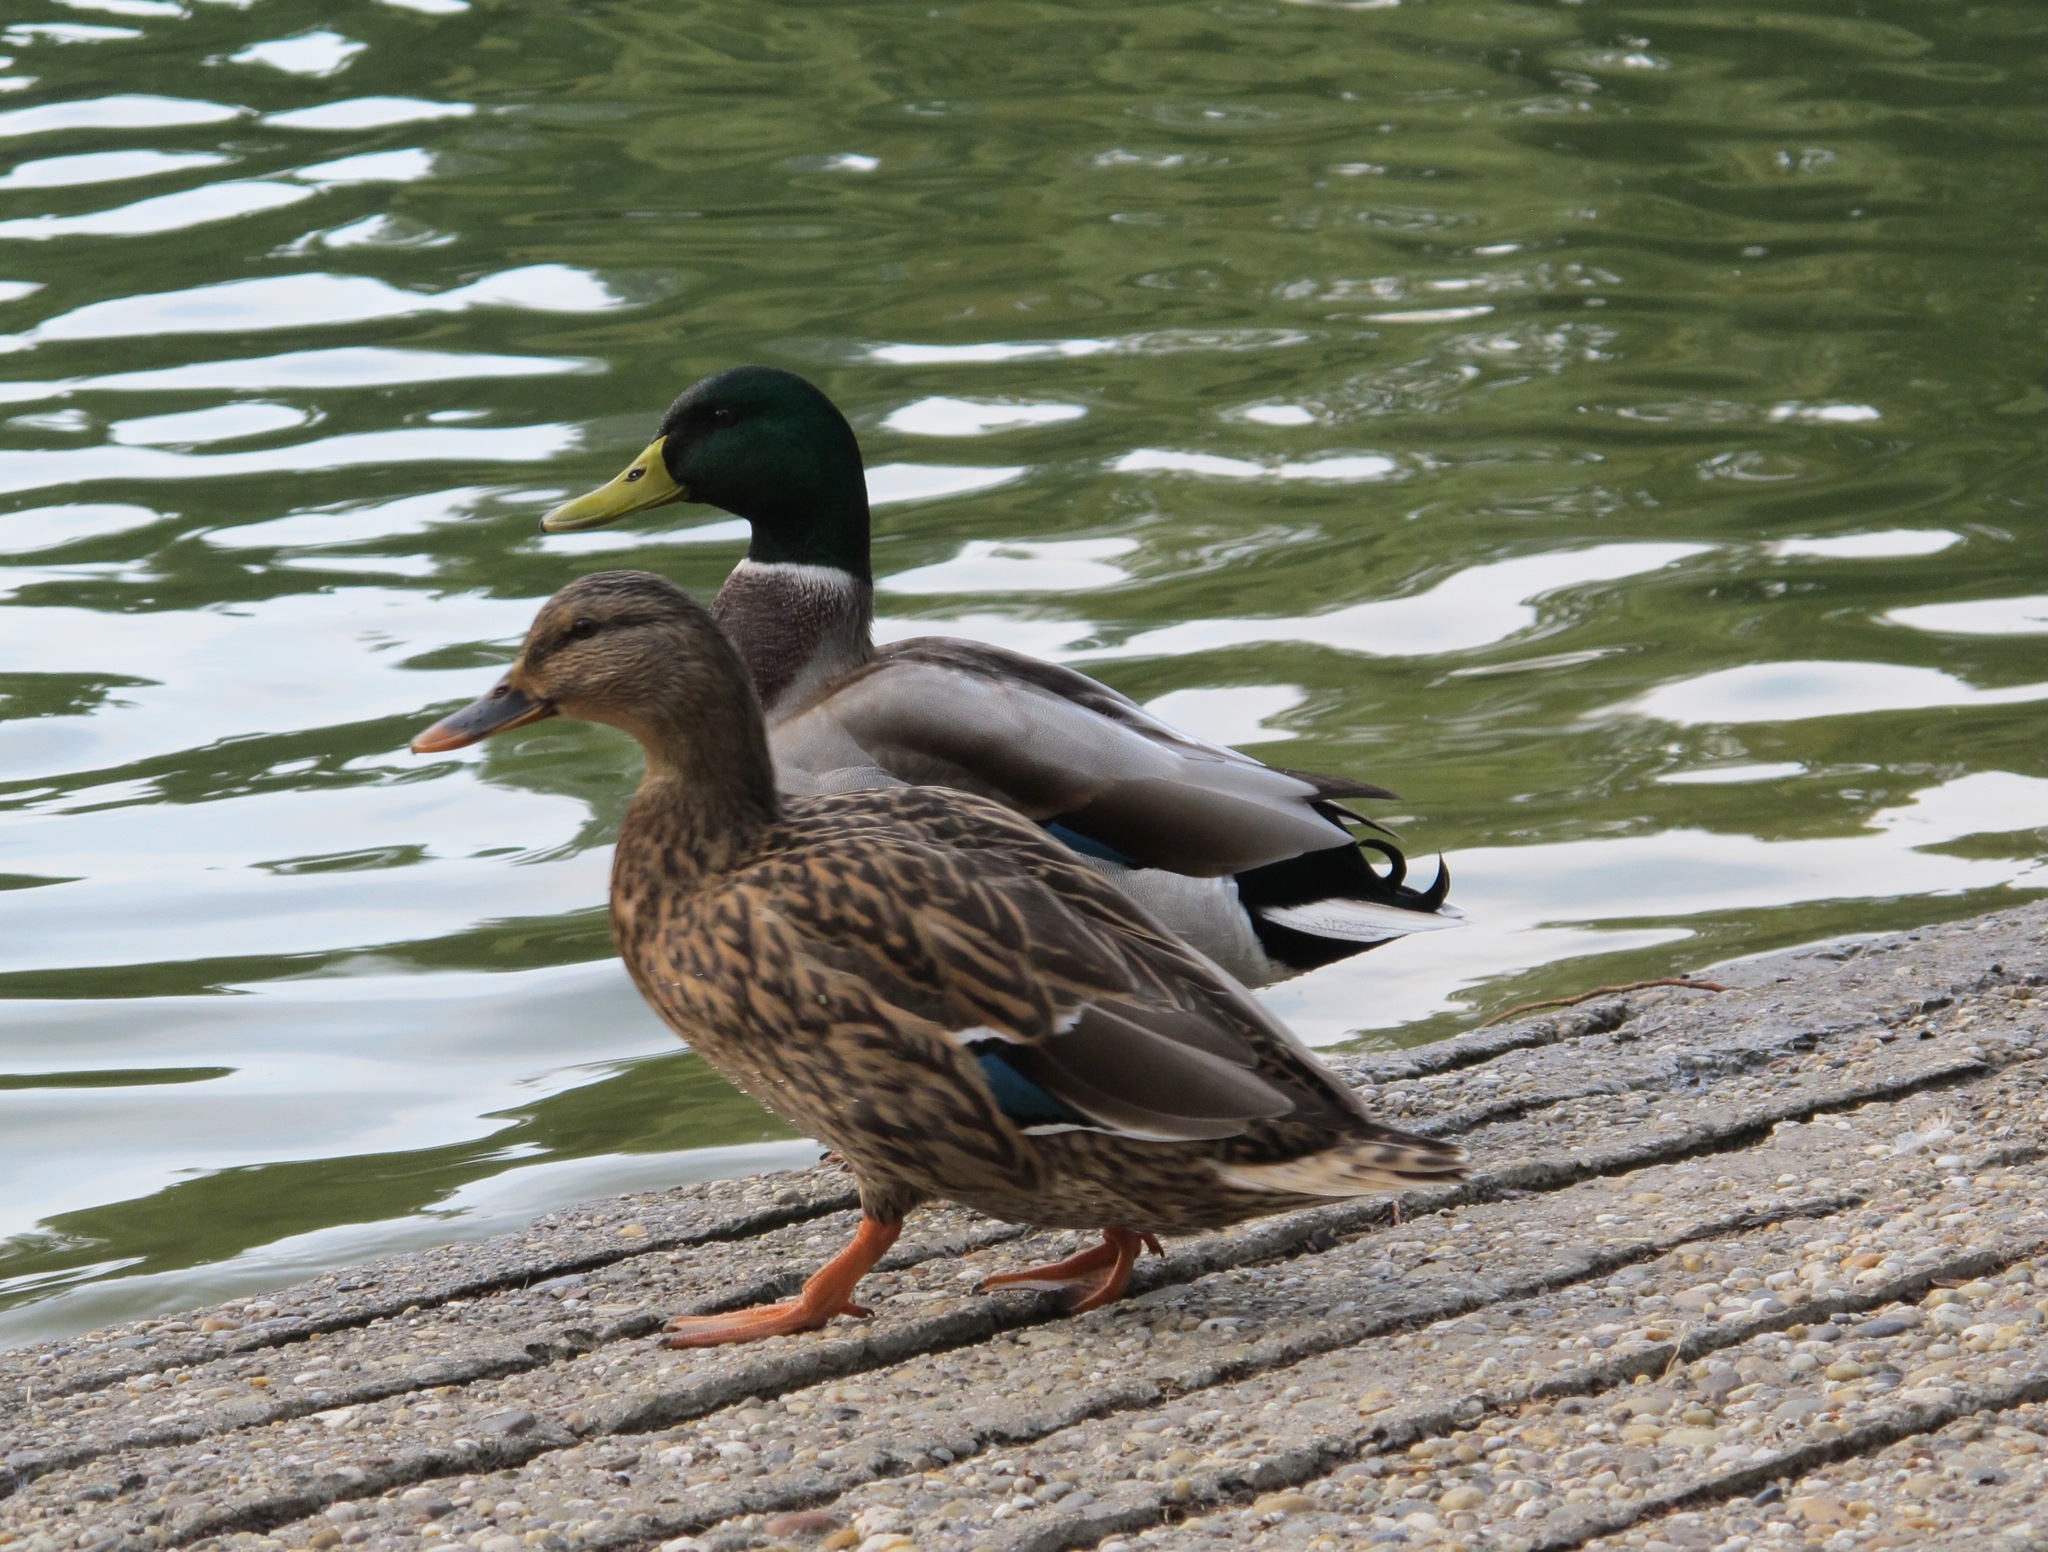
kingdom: Animalia
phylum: Chordata
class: Aves
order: Anseriformes
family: Anatidae
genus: Anas
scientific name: Anas platyrhynchos
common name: Mallard
